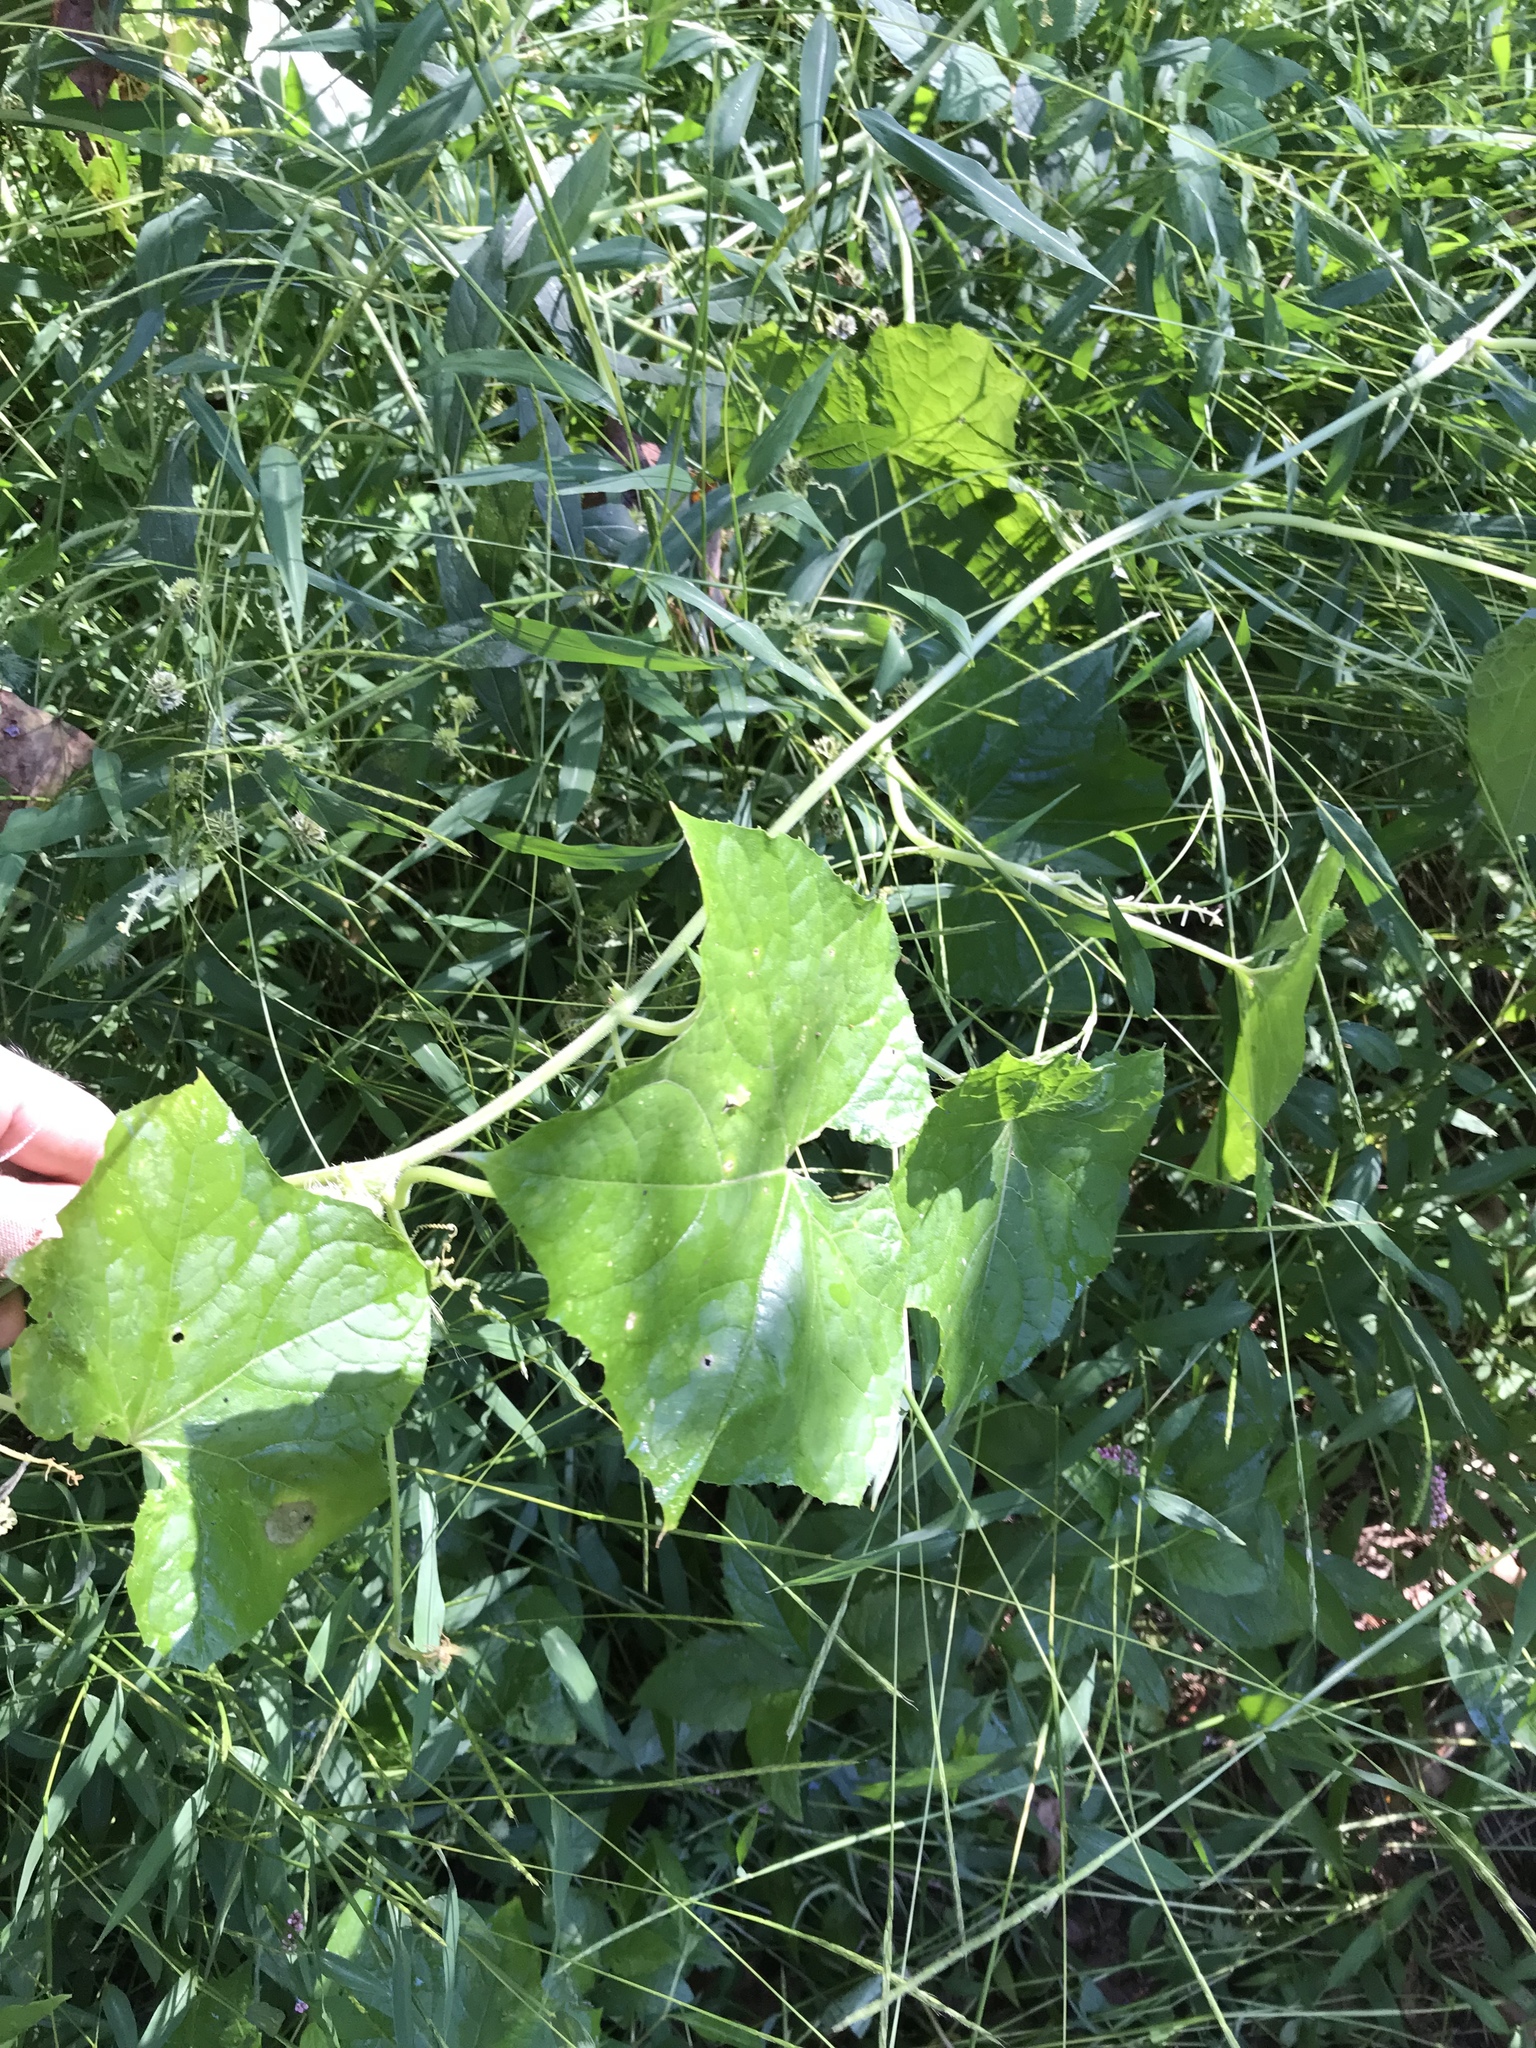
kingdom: Plantae
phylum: Tracheophyta
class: Magnoliopsida
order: Cucurbitales
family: Cucurbitaceae
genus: Sicyos
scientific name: Sicyos angulatus
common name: Angled burr cucumber
